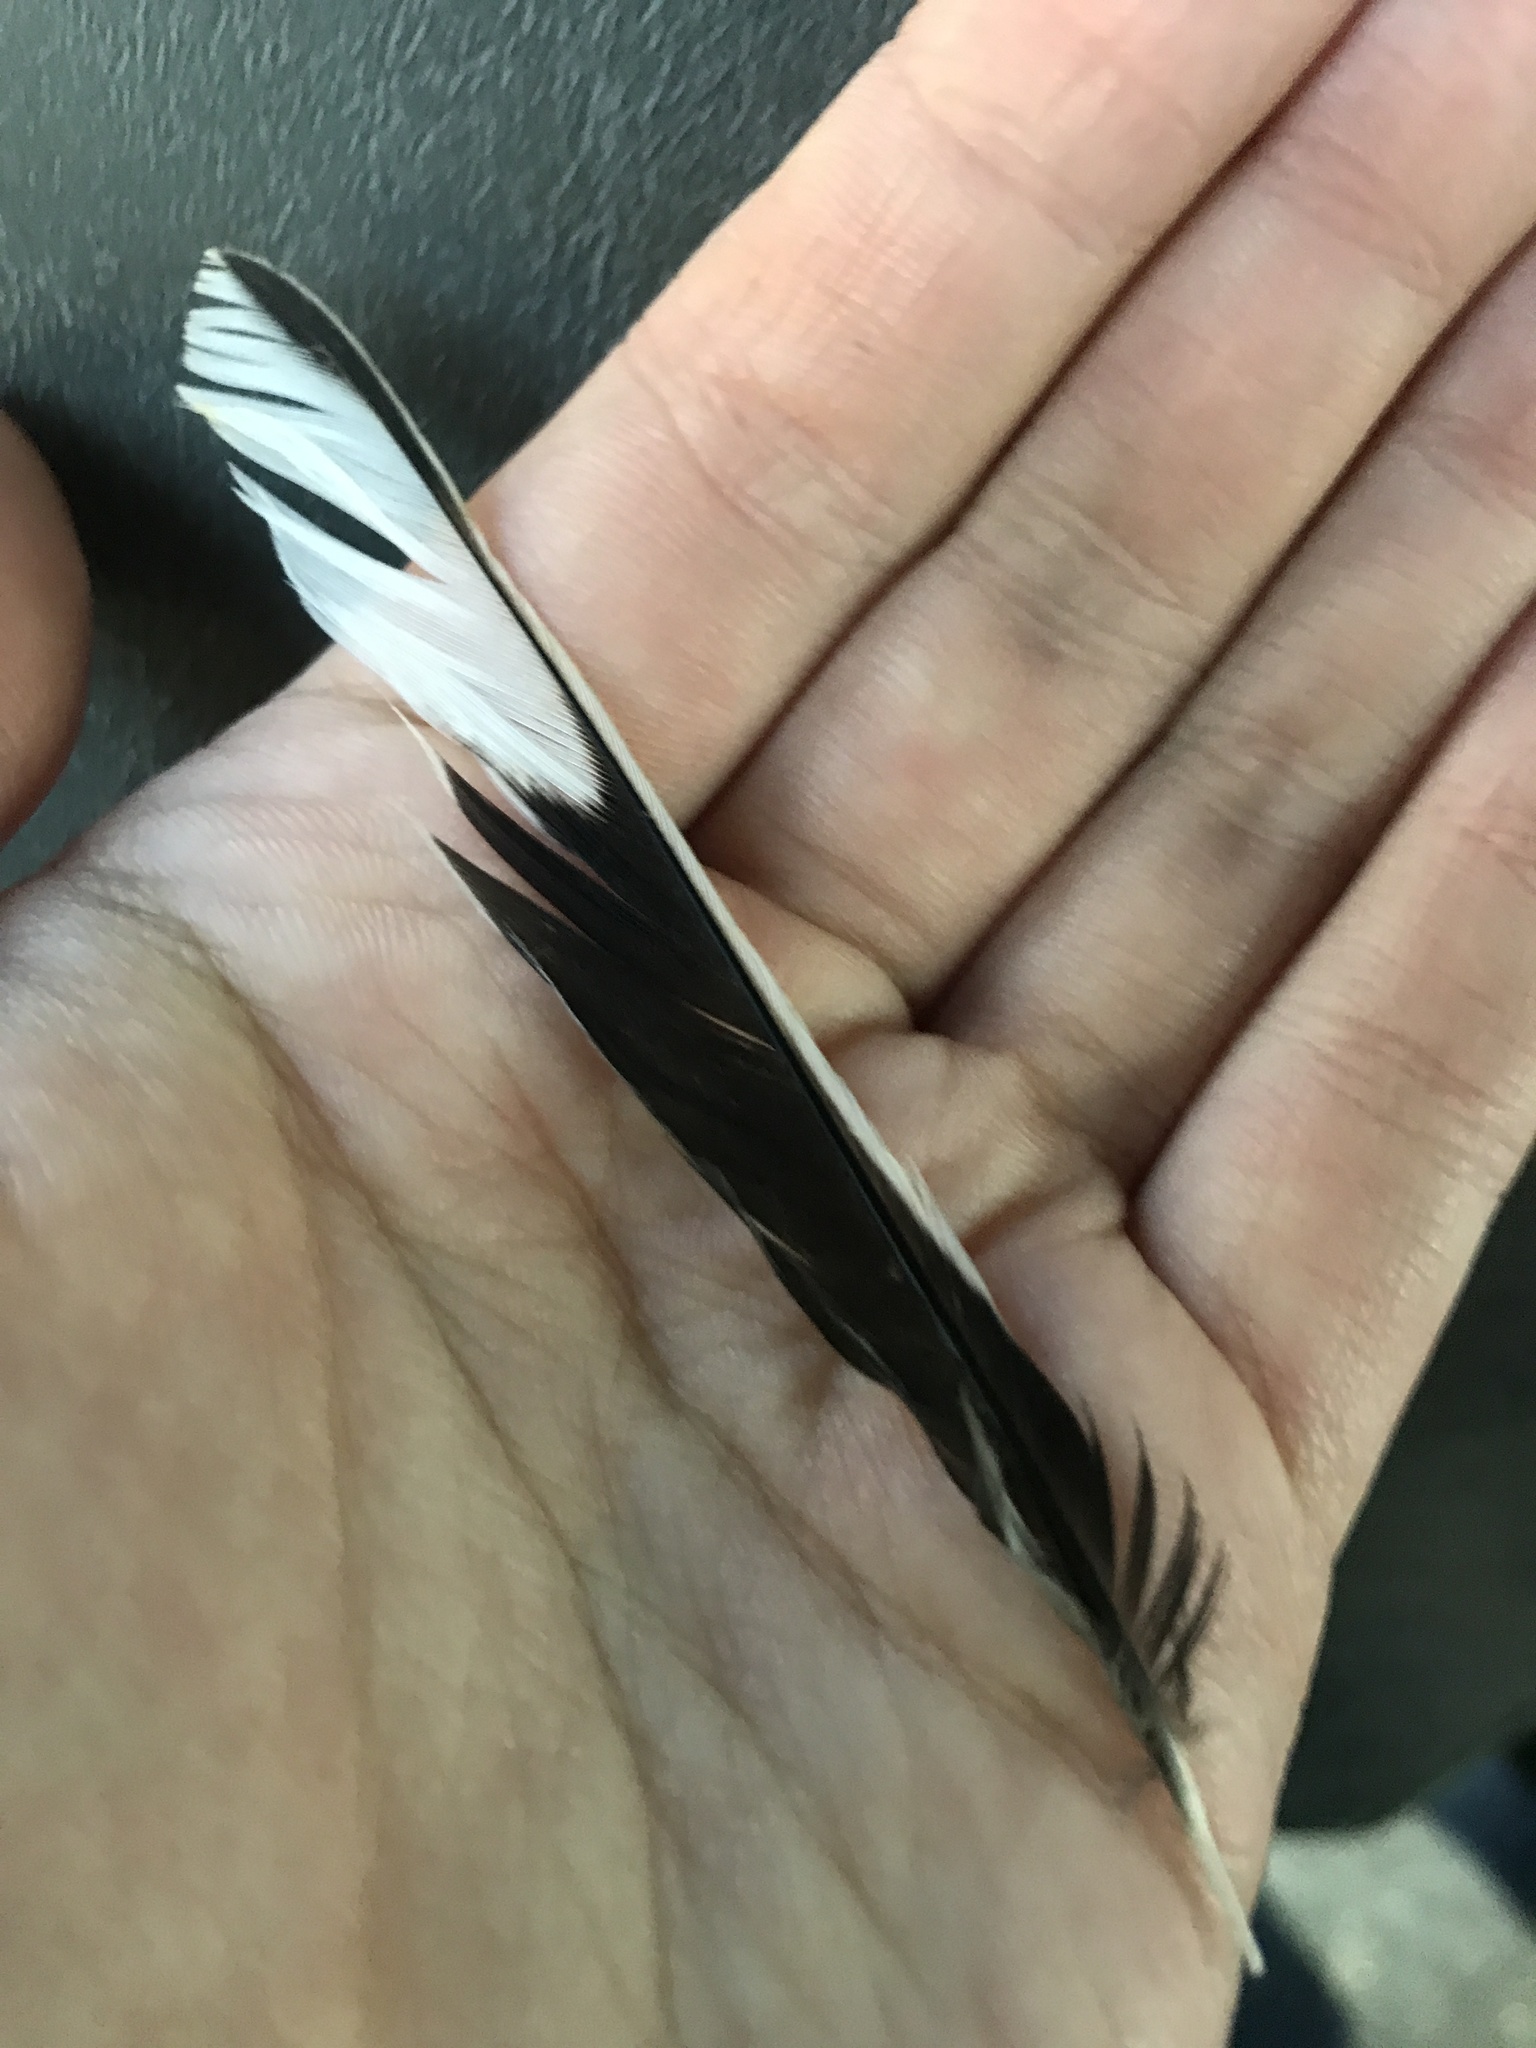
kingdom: Animalia
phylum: Chordata
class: Aves
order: Passeriformes
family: Passerellidae
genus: Pipilo
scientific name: Pipilo erythrophthalmus
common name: Eastern towhee
